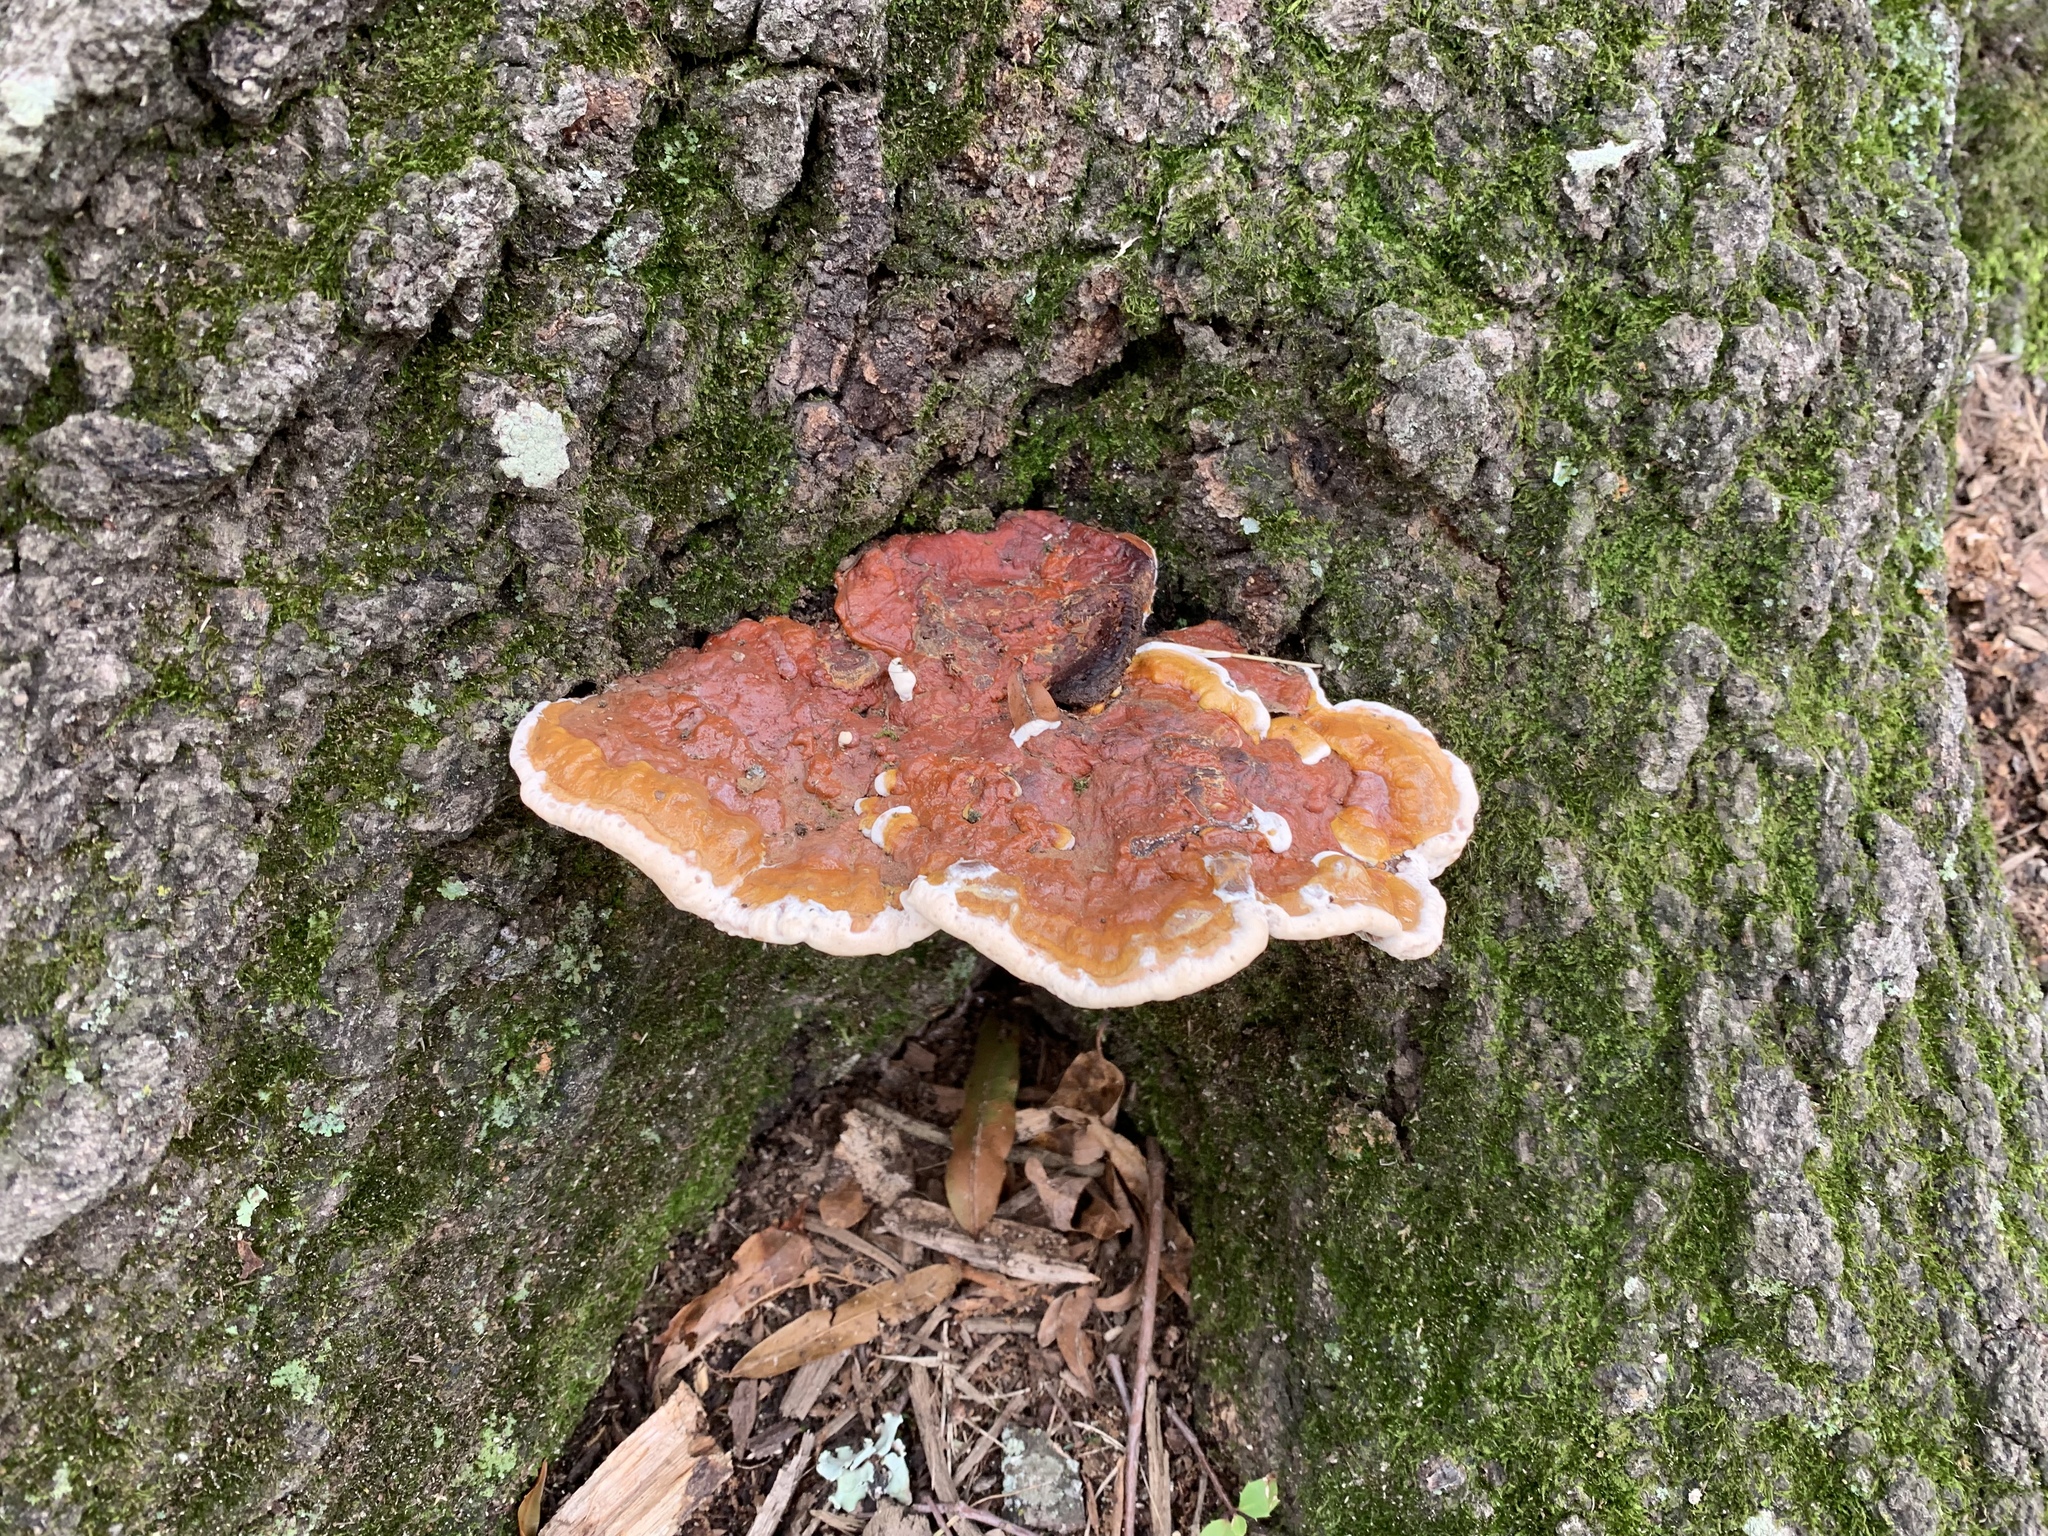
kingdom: Fungi
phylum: Basidiomycota
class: Agaricomycetes
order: Polyporales
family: Polyporaceae
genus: Ganoderma
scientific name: Ganoderma resinaceum
